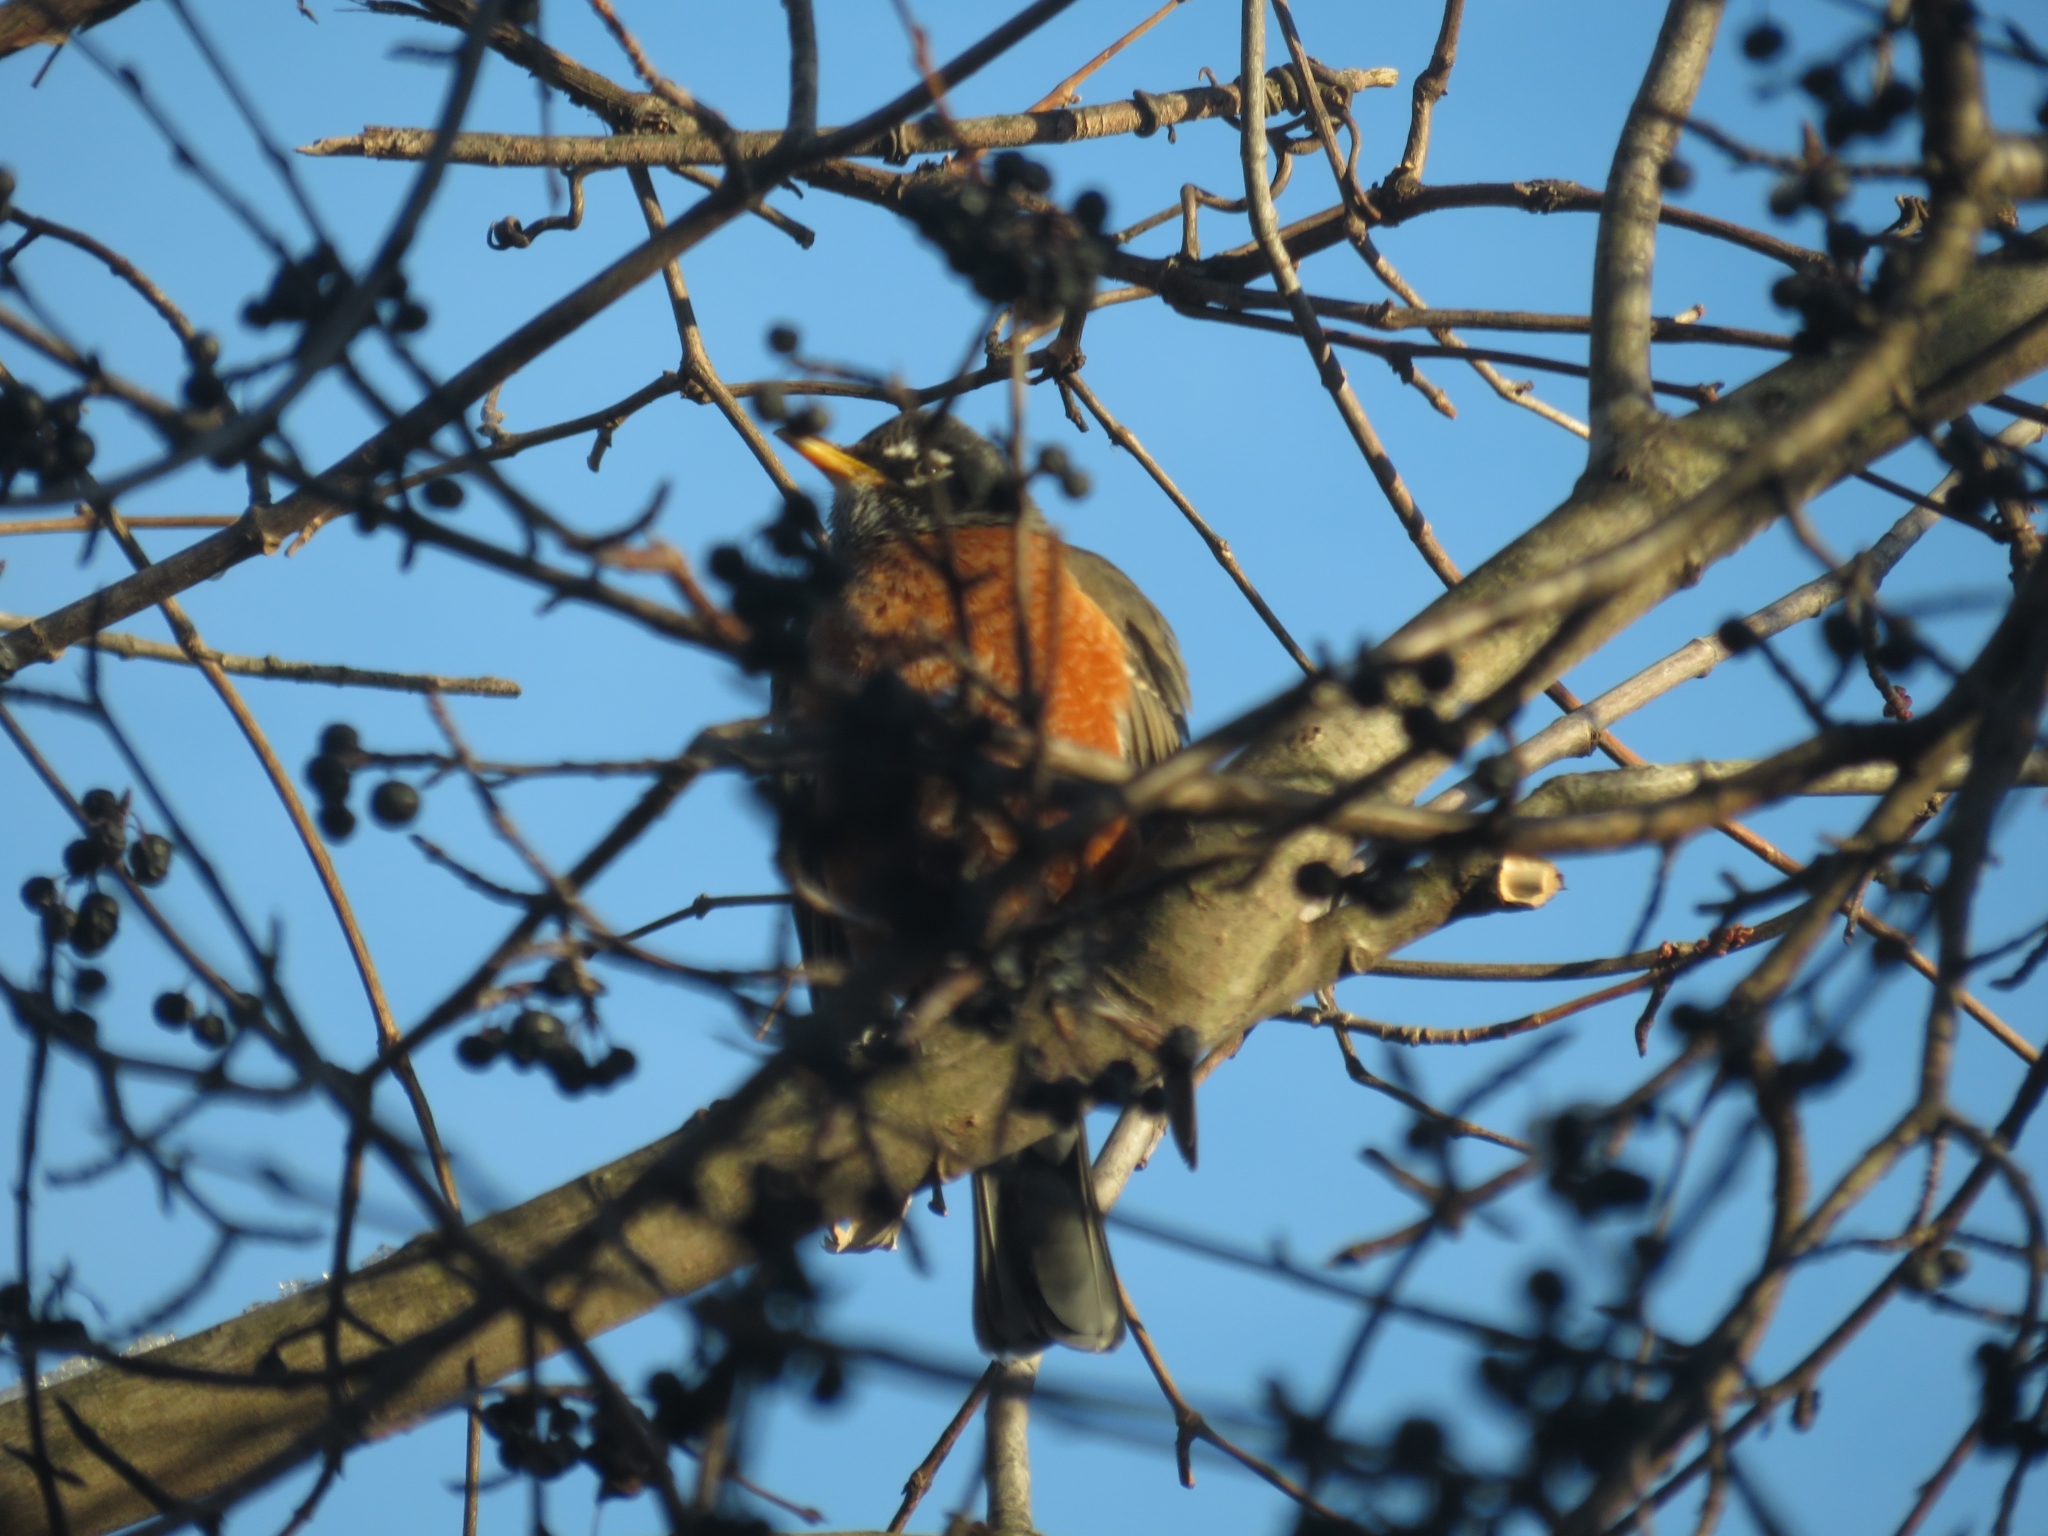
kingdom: Animalia
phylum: Chordata
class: Aves
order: Passeriformes
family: Turdidae
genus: Turdus
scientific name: Turdus migratorius
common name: American robin
